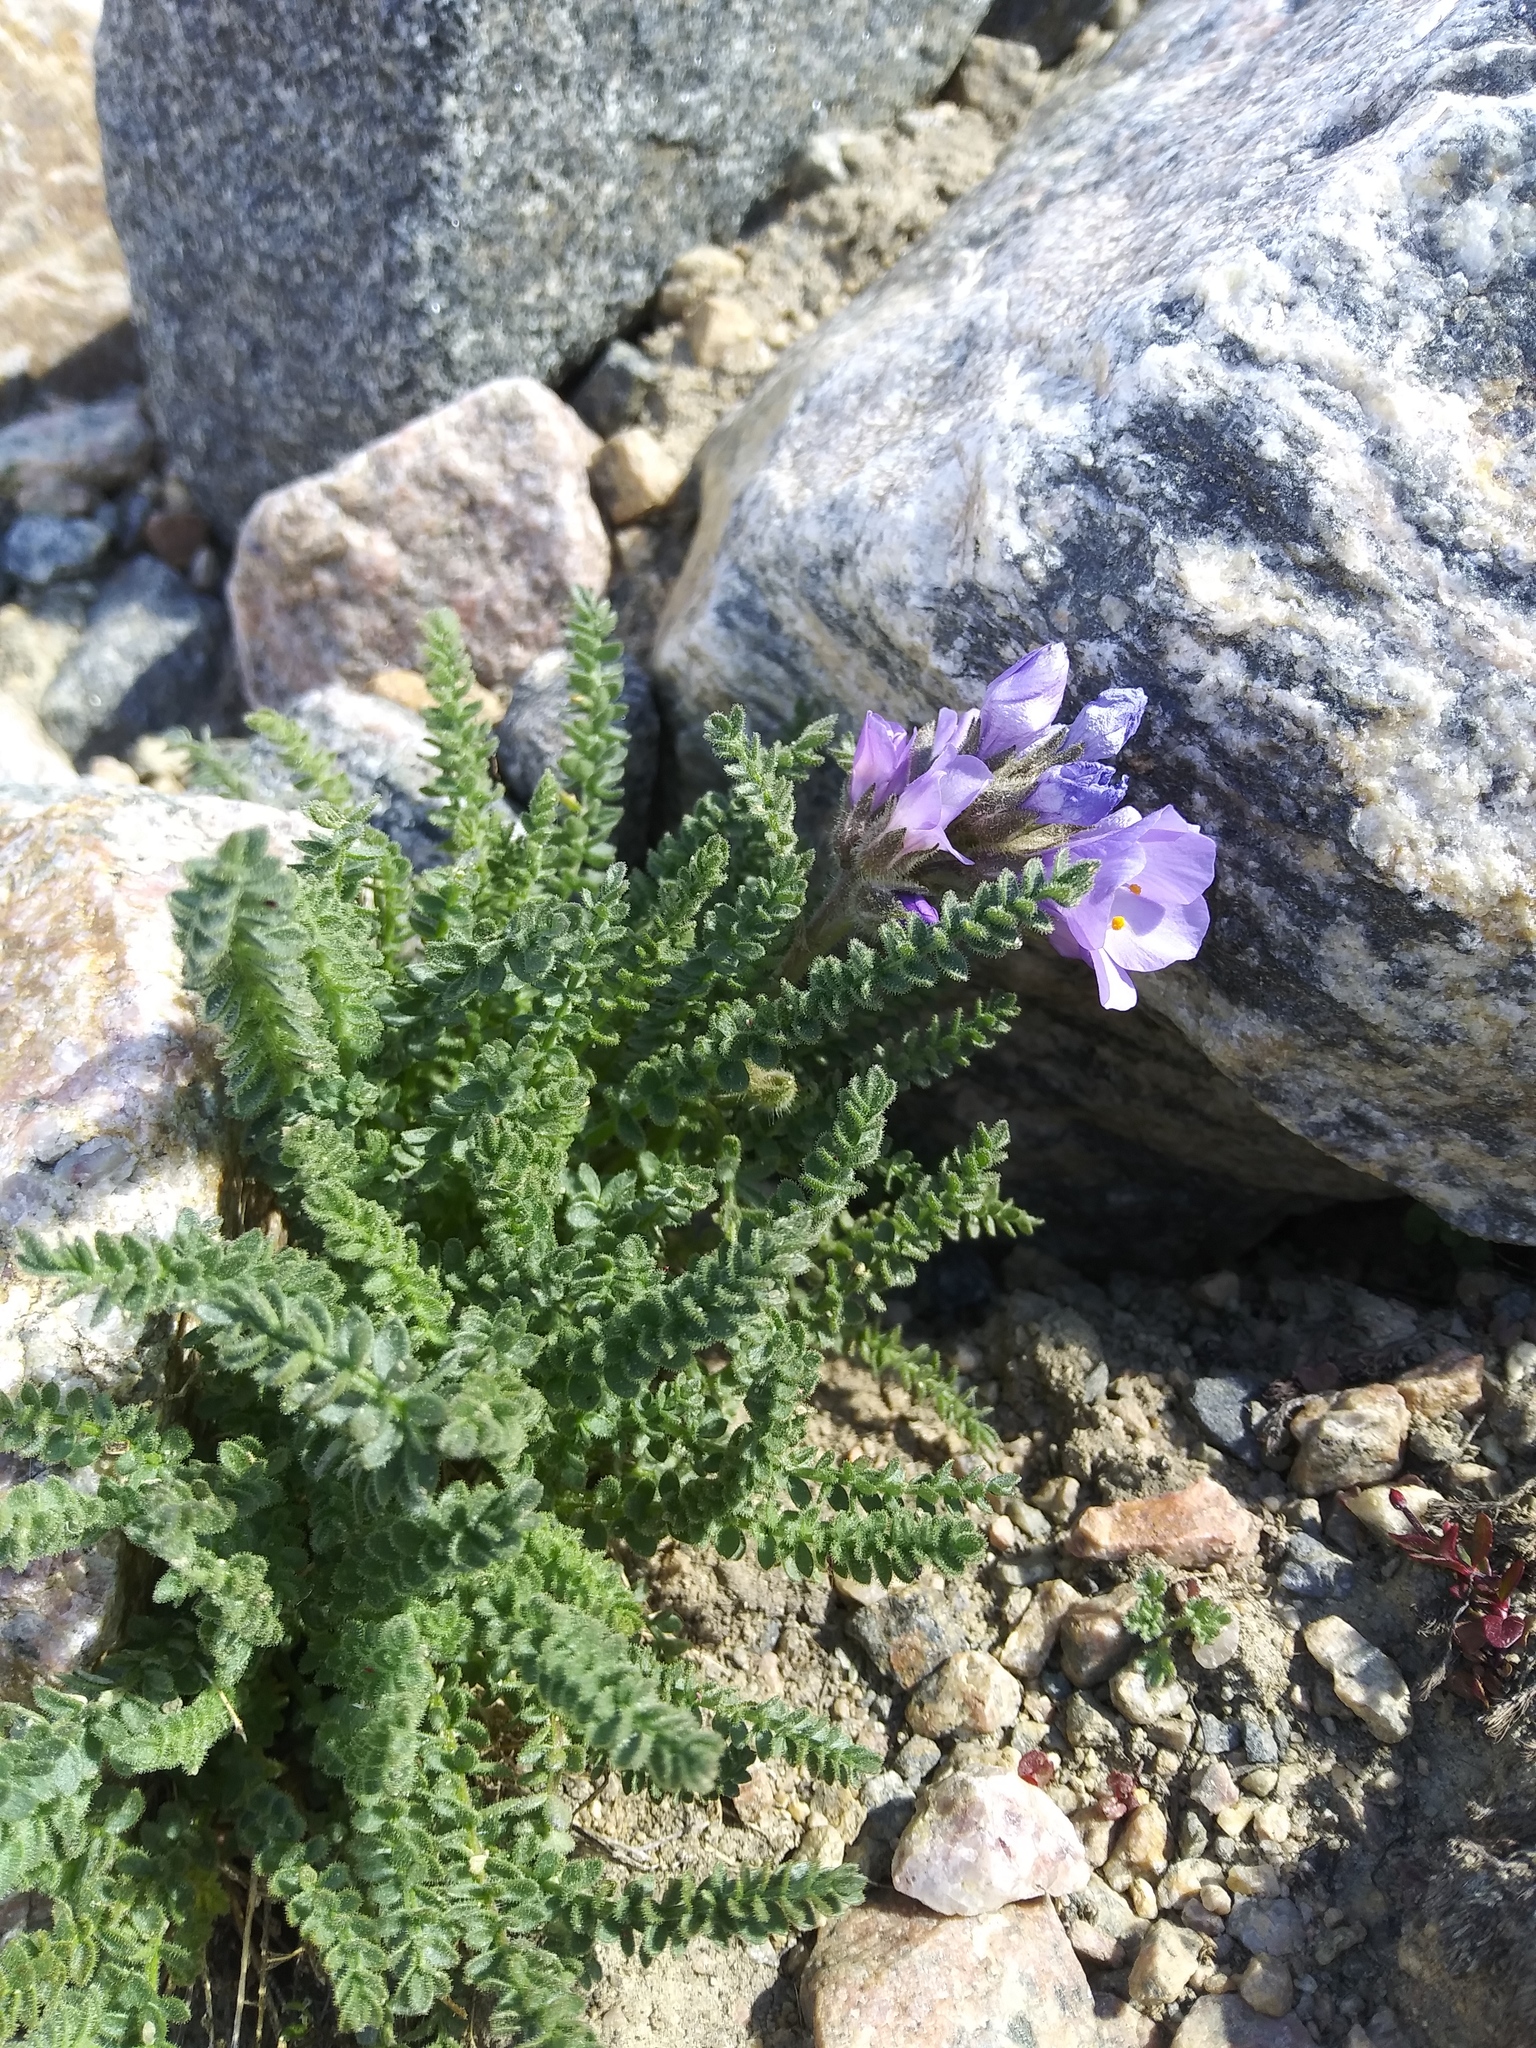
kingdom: Plantae
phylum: Tracheophyta
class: Magnoliopsida
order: Ericales
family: Polemoniaceae
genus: Polemonium
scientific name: Polemonium viscosum
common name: Skunk jacob's-ladder
